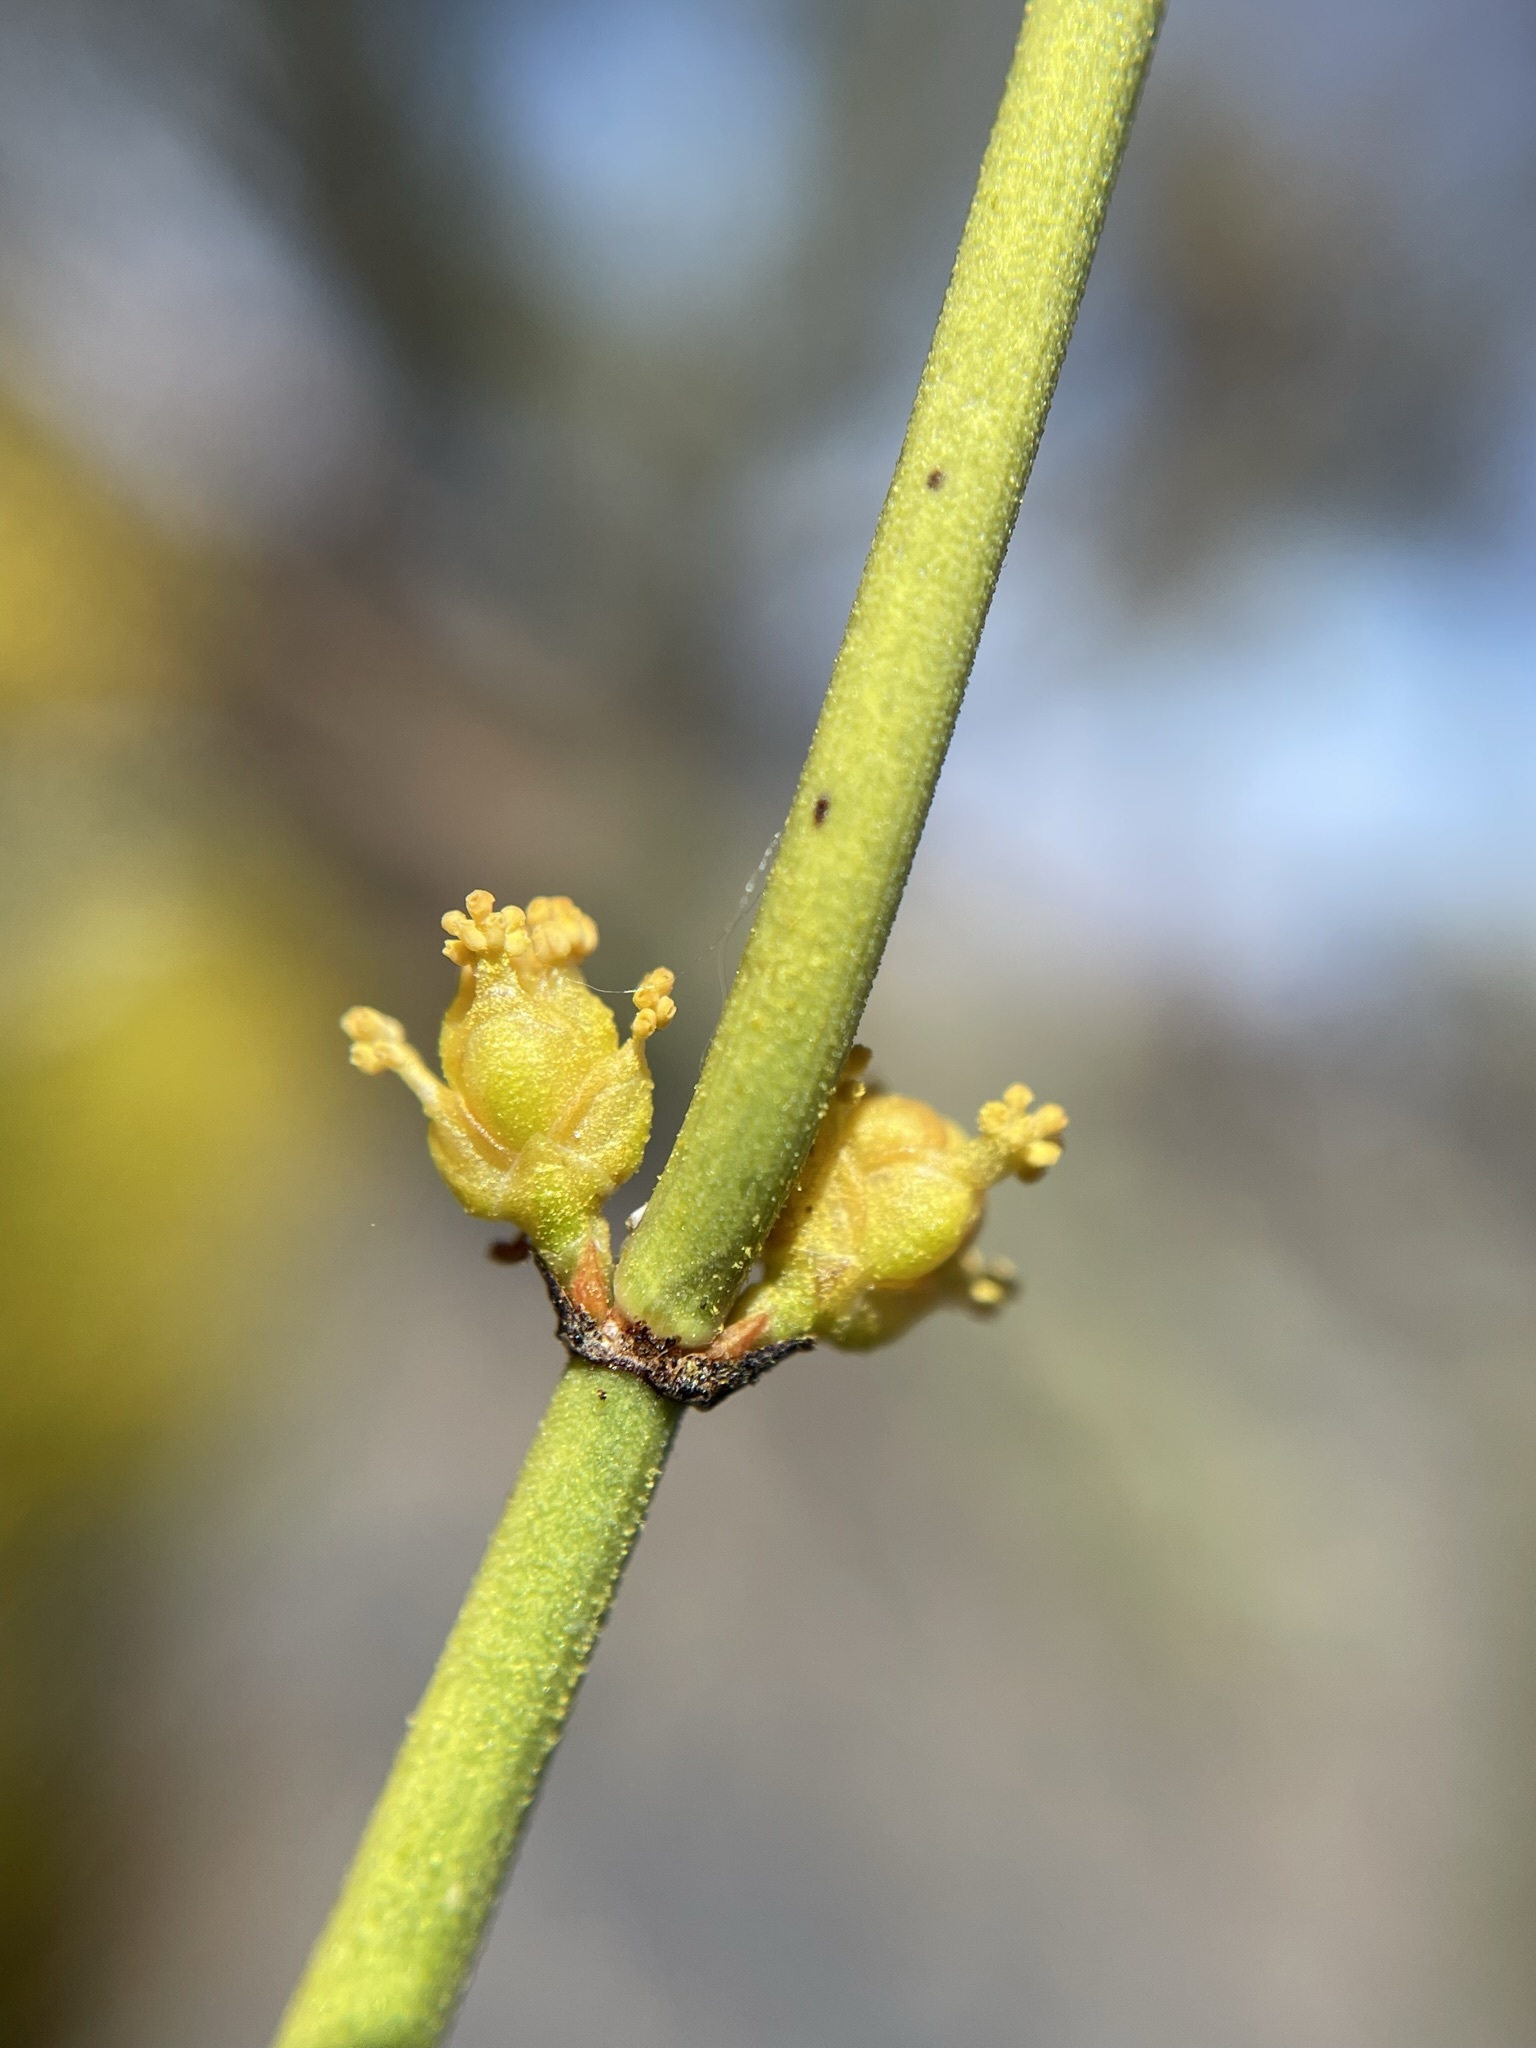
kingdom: Plantae
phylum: Tracheophyta
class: Gnetopsida
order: Ephedrales
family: Ephedraceae
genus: Ephedra
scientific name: Ephedra viridis
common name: Green ephedra
